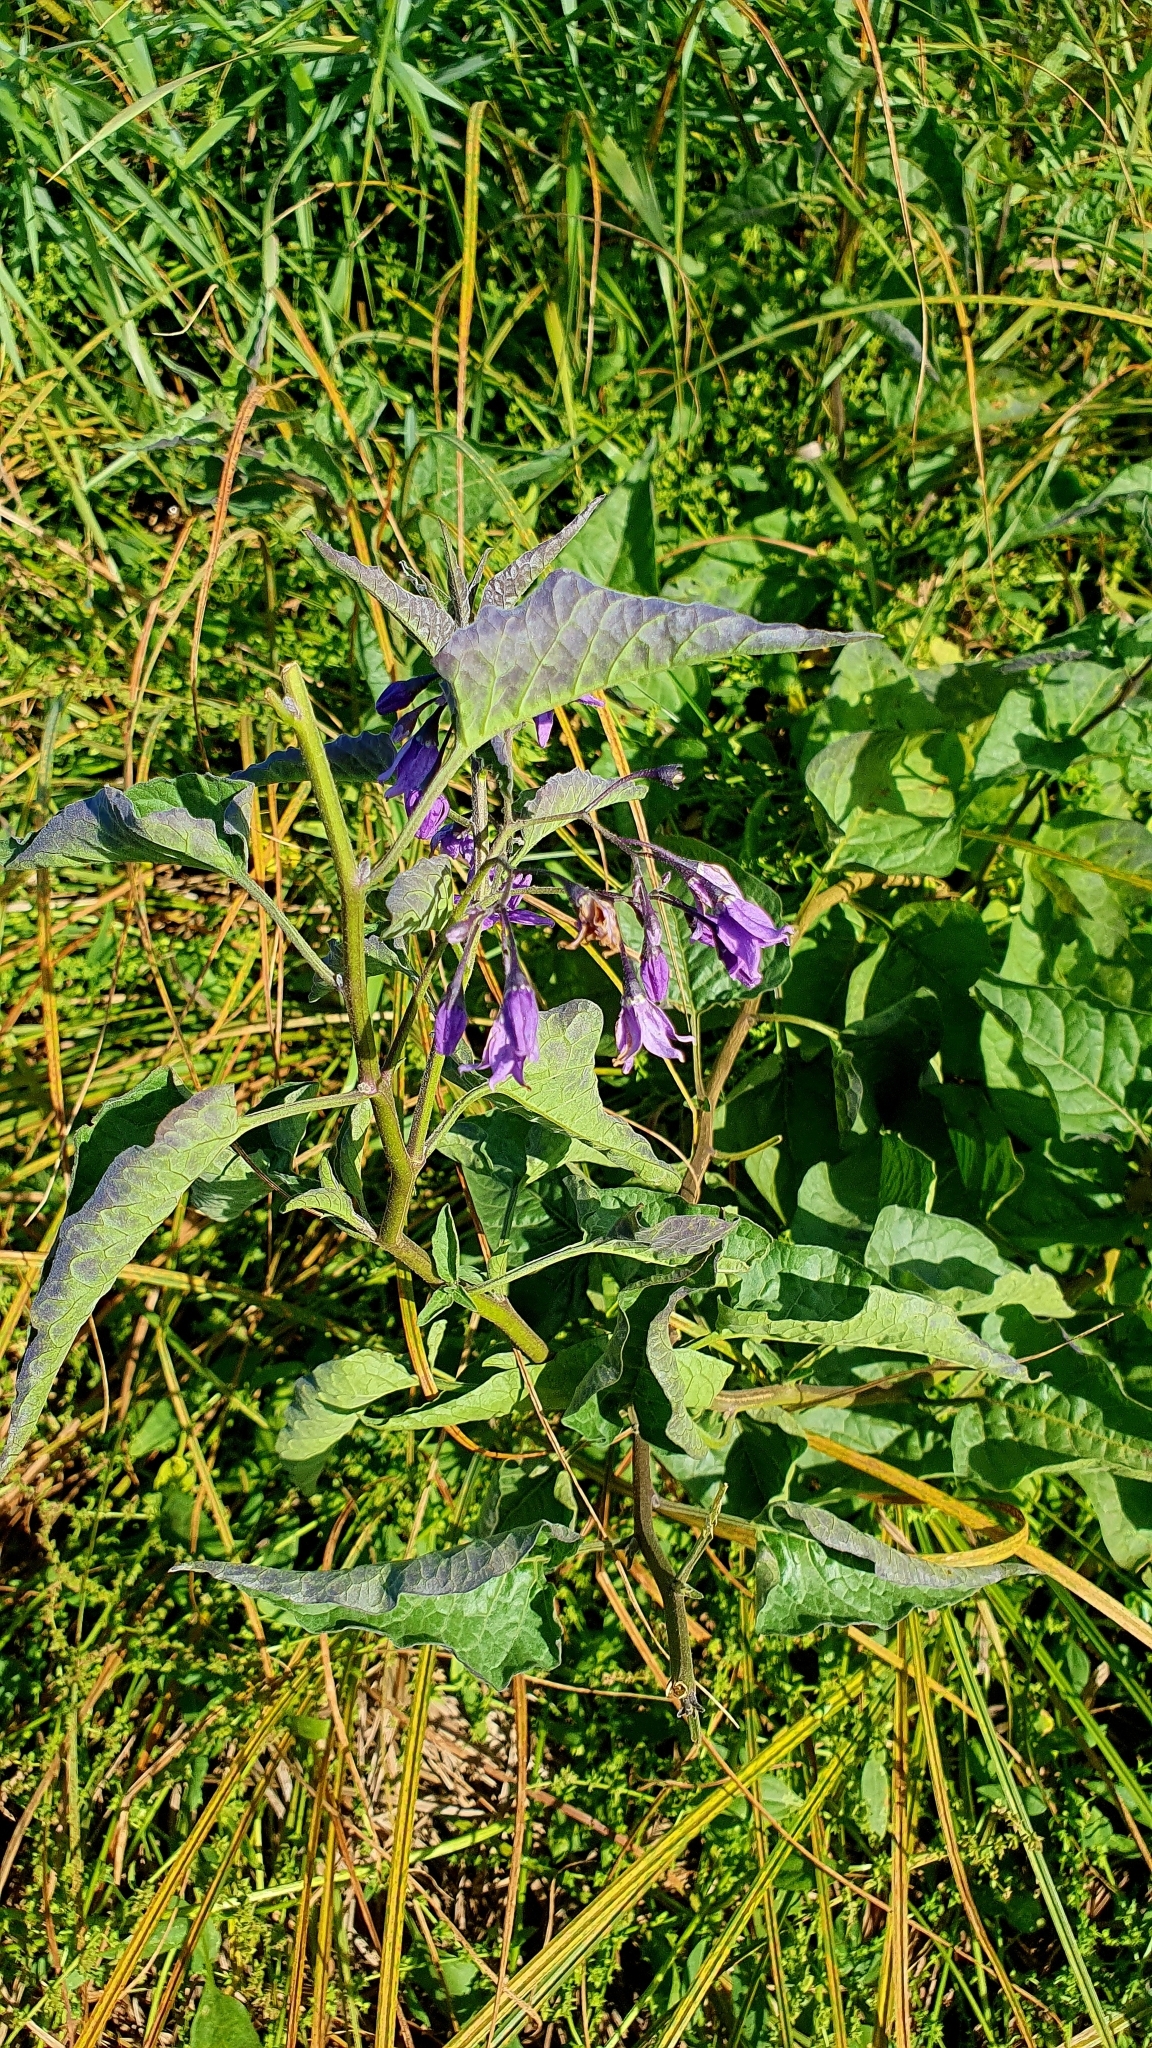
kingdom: Plantae
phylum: Tracheophyta
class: Magnoliopsida
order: Solanales
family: Solanaceae
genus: Solanum
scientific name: Solanum dulcamara
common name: Climbing nightshade
